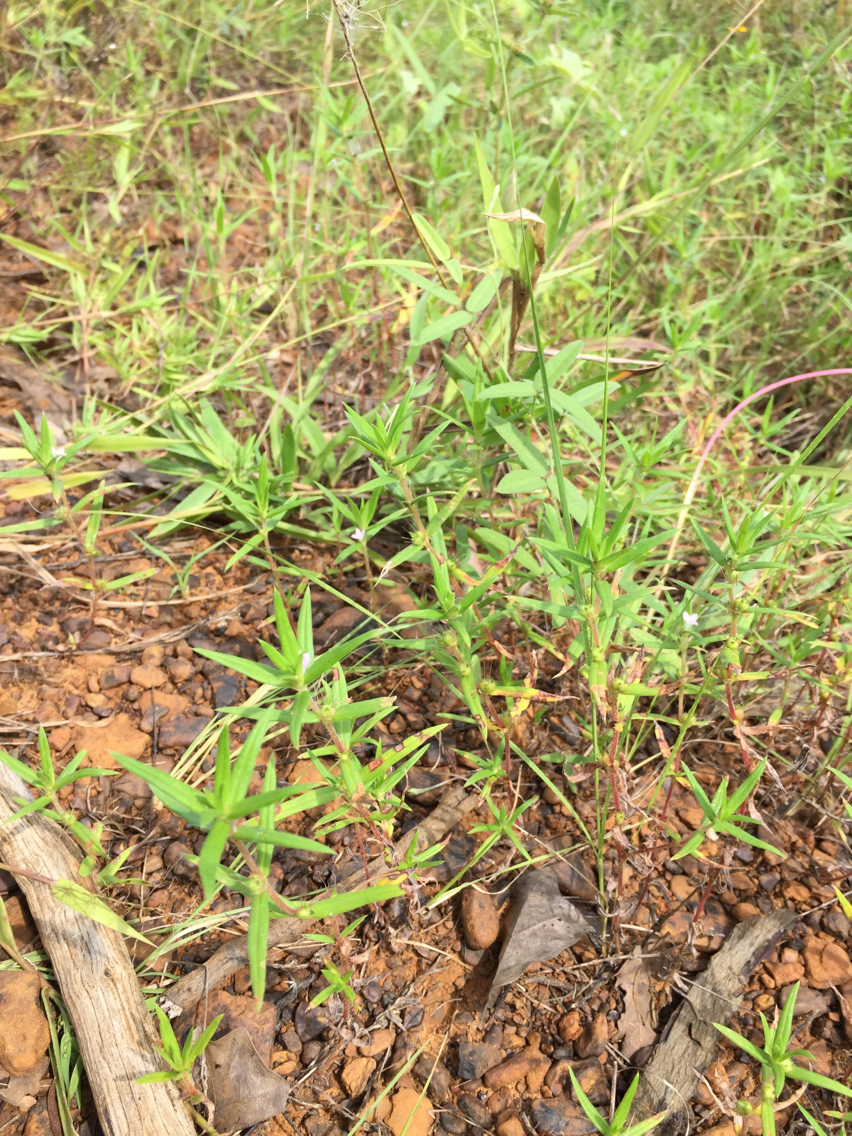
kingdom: Plantae
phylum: Tracheophyta
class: Magnoliopsida
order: Gentianales
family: Rubiaceae
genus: Hexasepalum
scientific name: Hexasepalum teres
